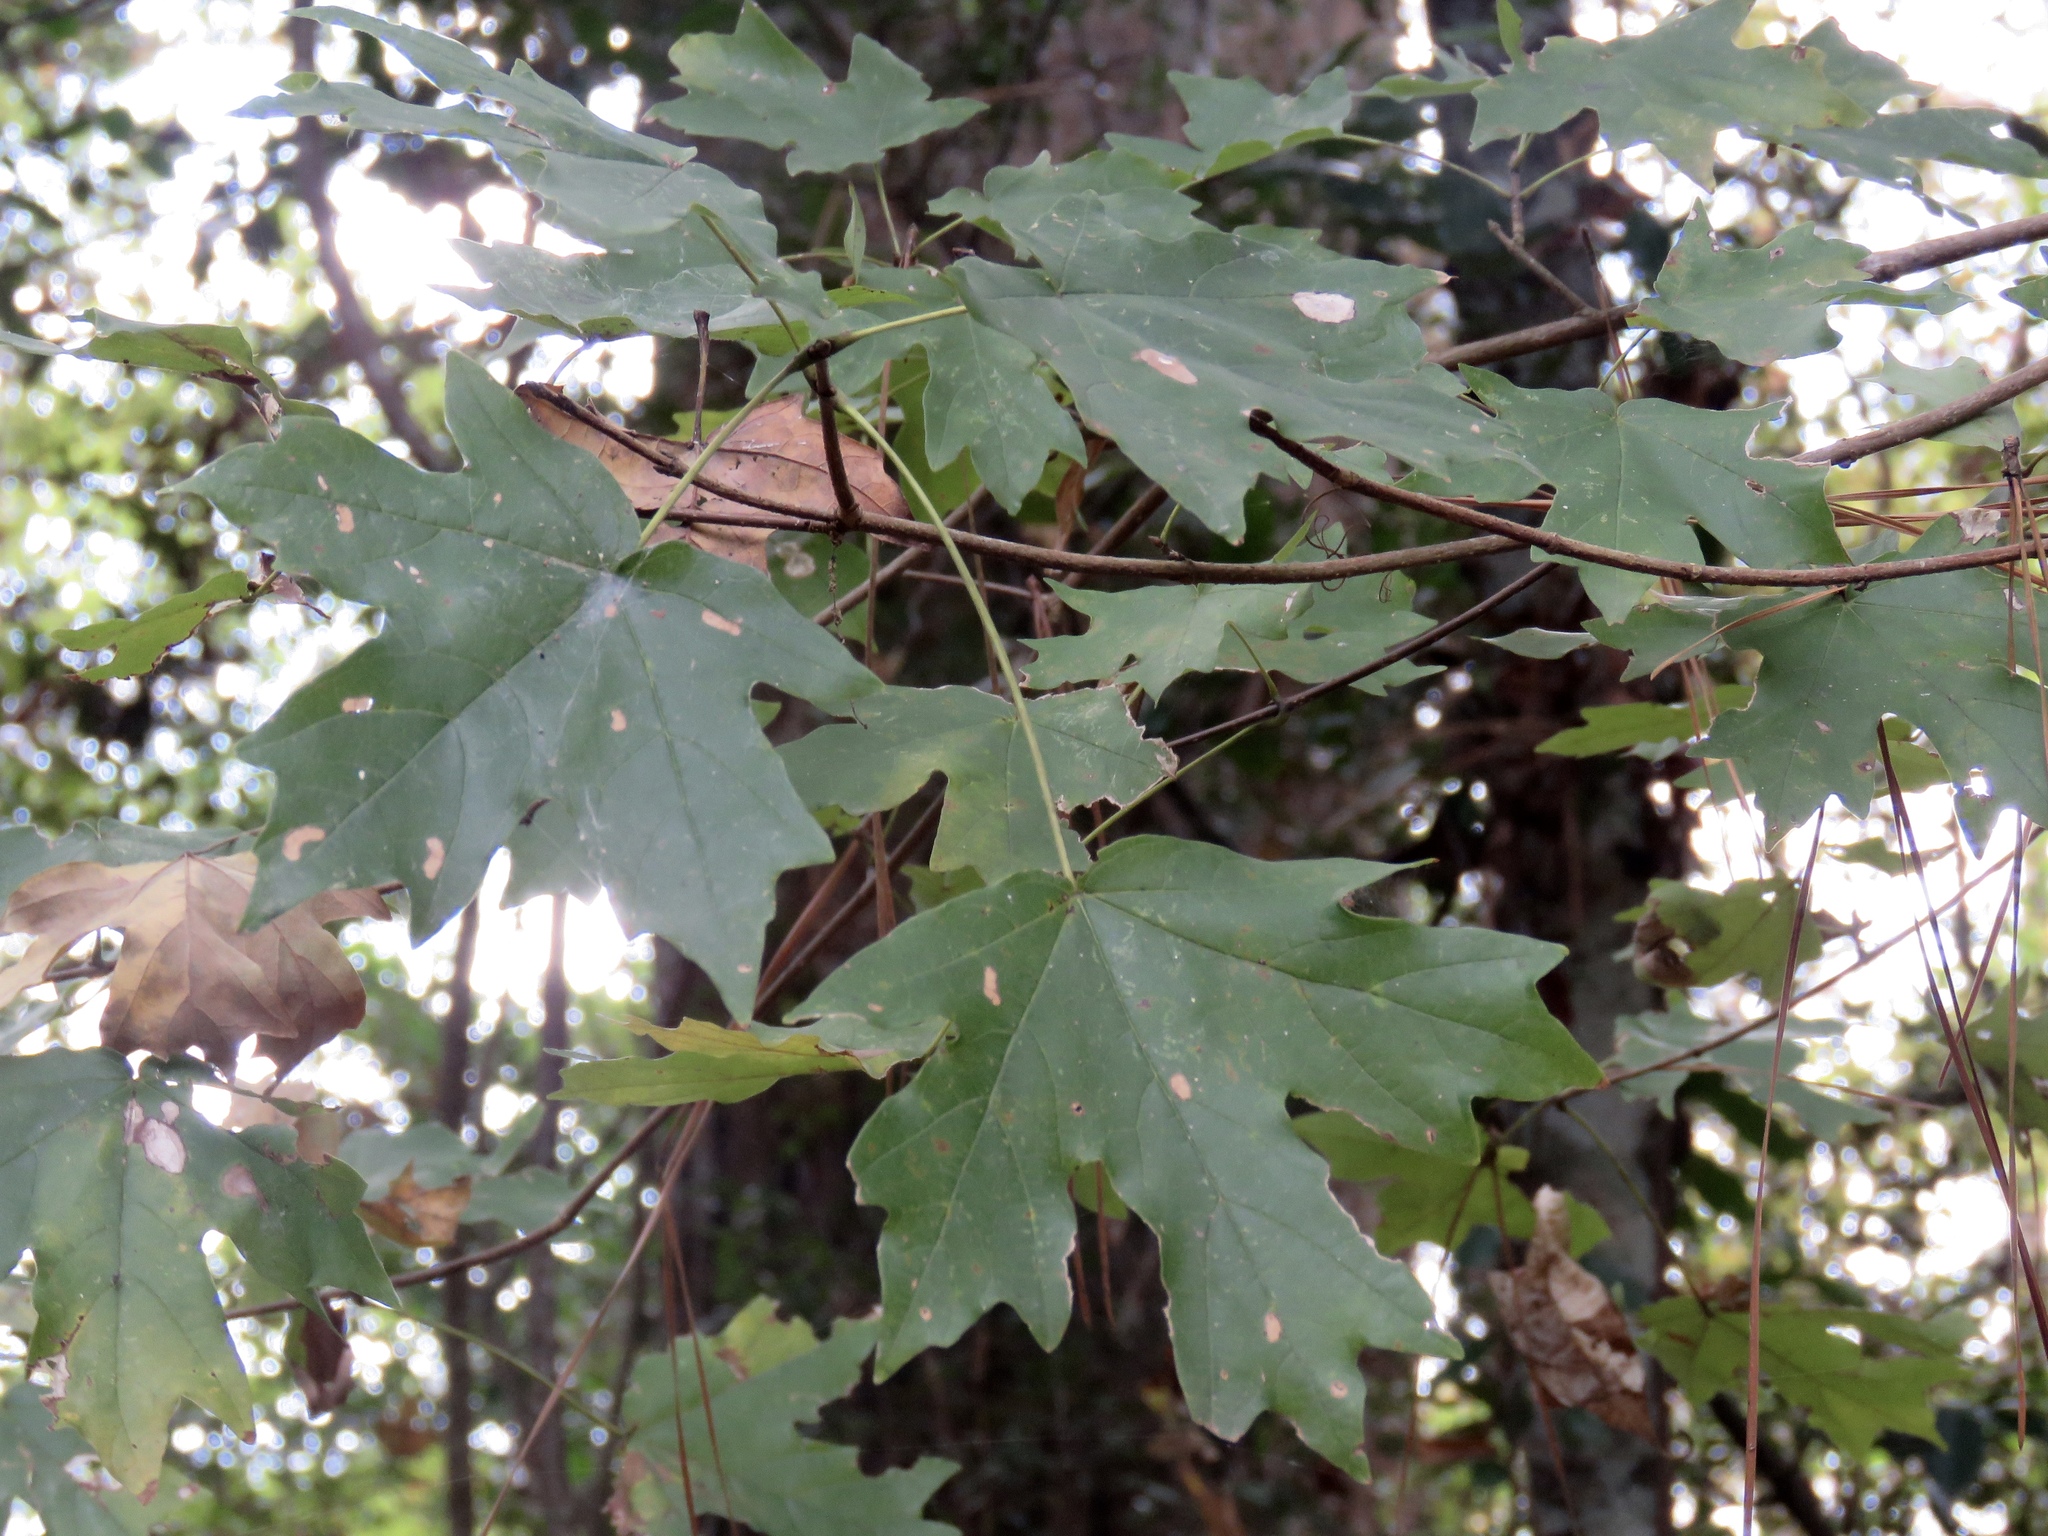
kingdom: Plantae
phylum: Tracheophyta
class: Magnoliopsida
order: Sapindales
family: Sapindaceae
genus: Acer
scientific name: Acer floridanum
